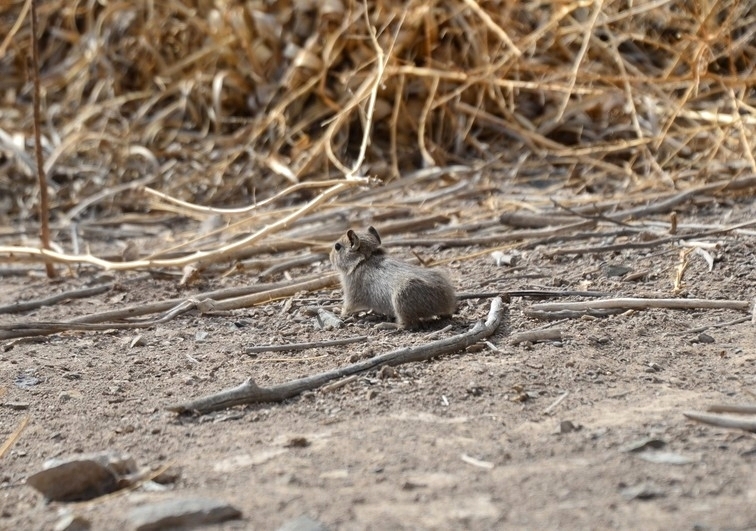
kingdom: Animalia
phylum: Chordata
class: Mammalia
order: Rodentia
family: Caviidae
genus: Microcavia
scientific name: Microcavia australis
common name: Southern mountain cavy
